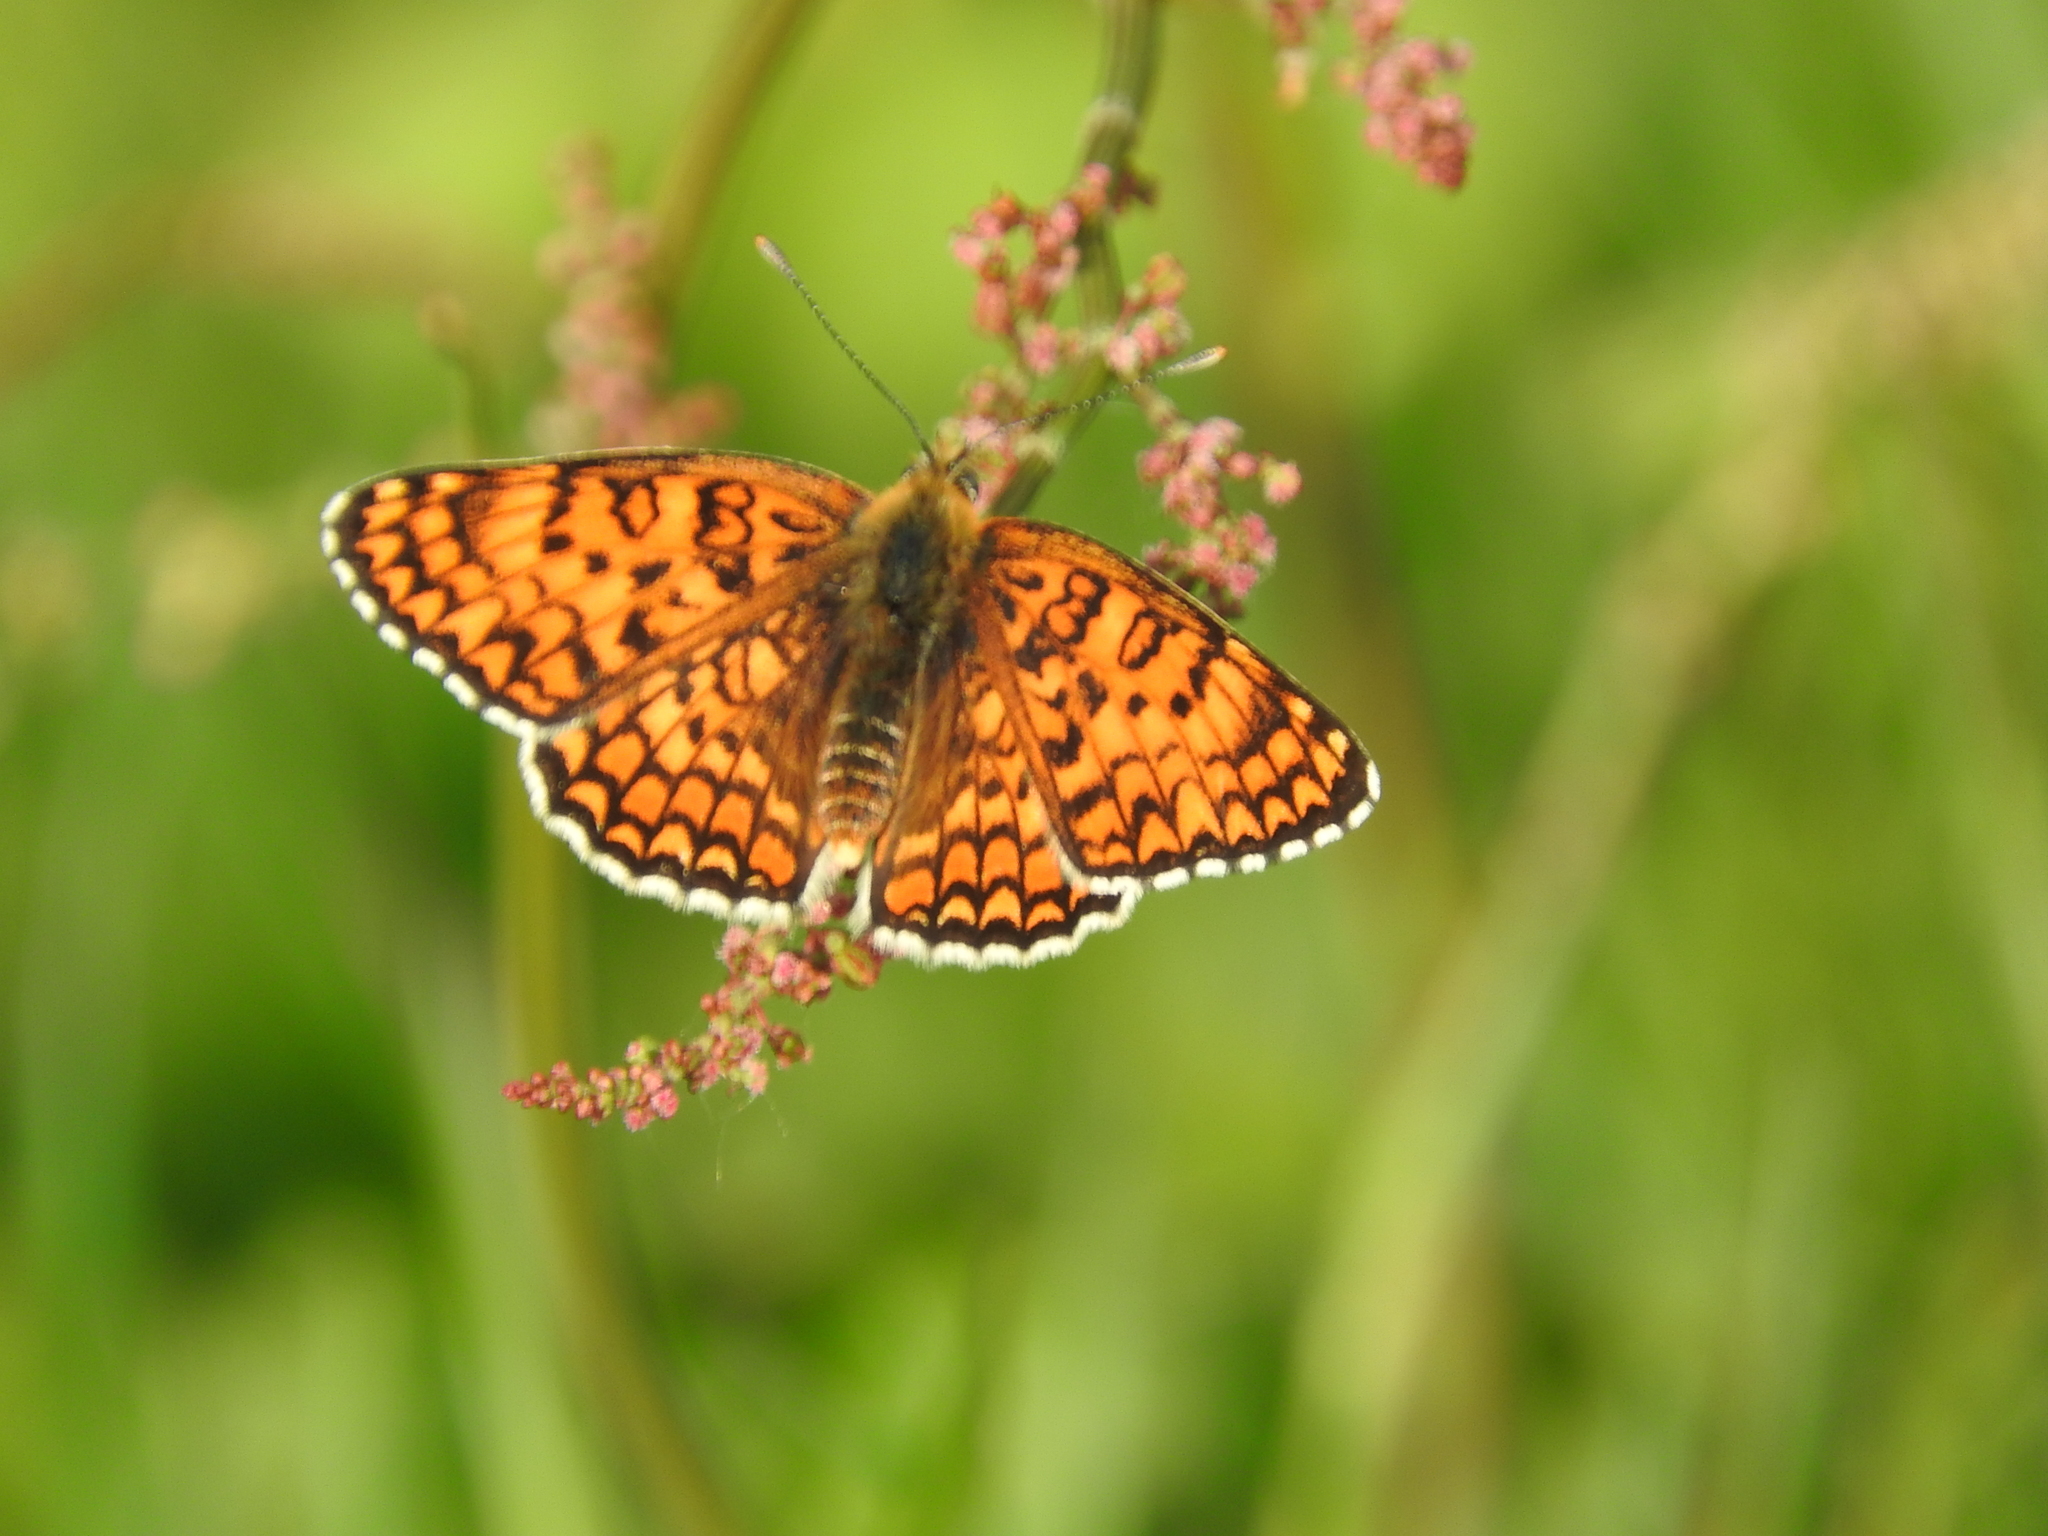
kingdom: Animalia
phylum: Arthropoda
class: Insecta
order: Lepidoptera
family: Nymphalidae
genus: Melitaea
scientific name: Melitaea phoebe
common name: Knapweed fritillary
